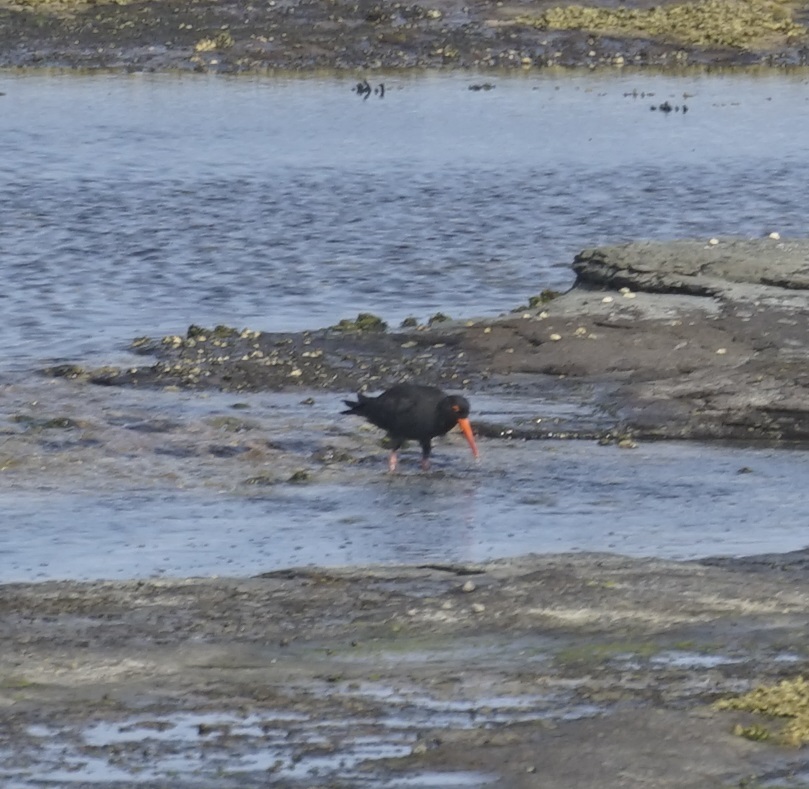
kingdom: Animalia
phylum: Chordata
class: Aves
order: Charadriiformes
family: Haematopodidae
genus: Haematopus
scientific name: Haematopus fuliginosus
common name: Sooty oystercatcher
